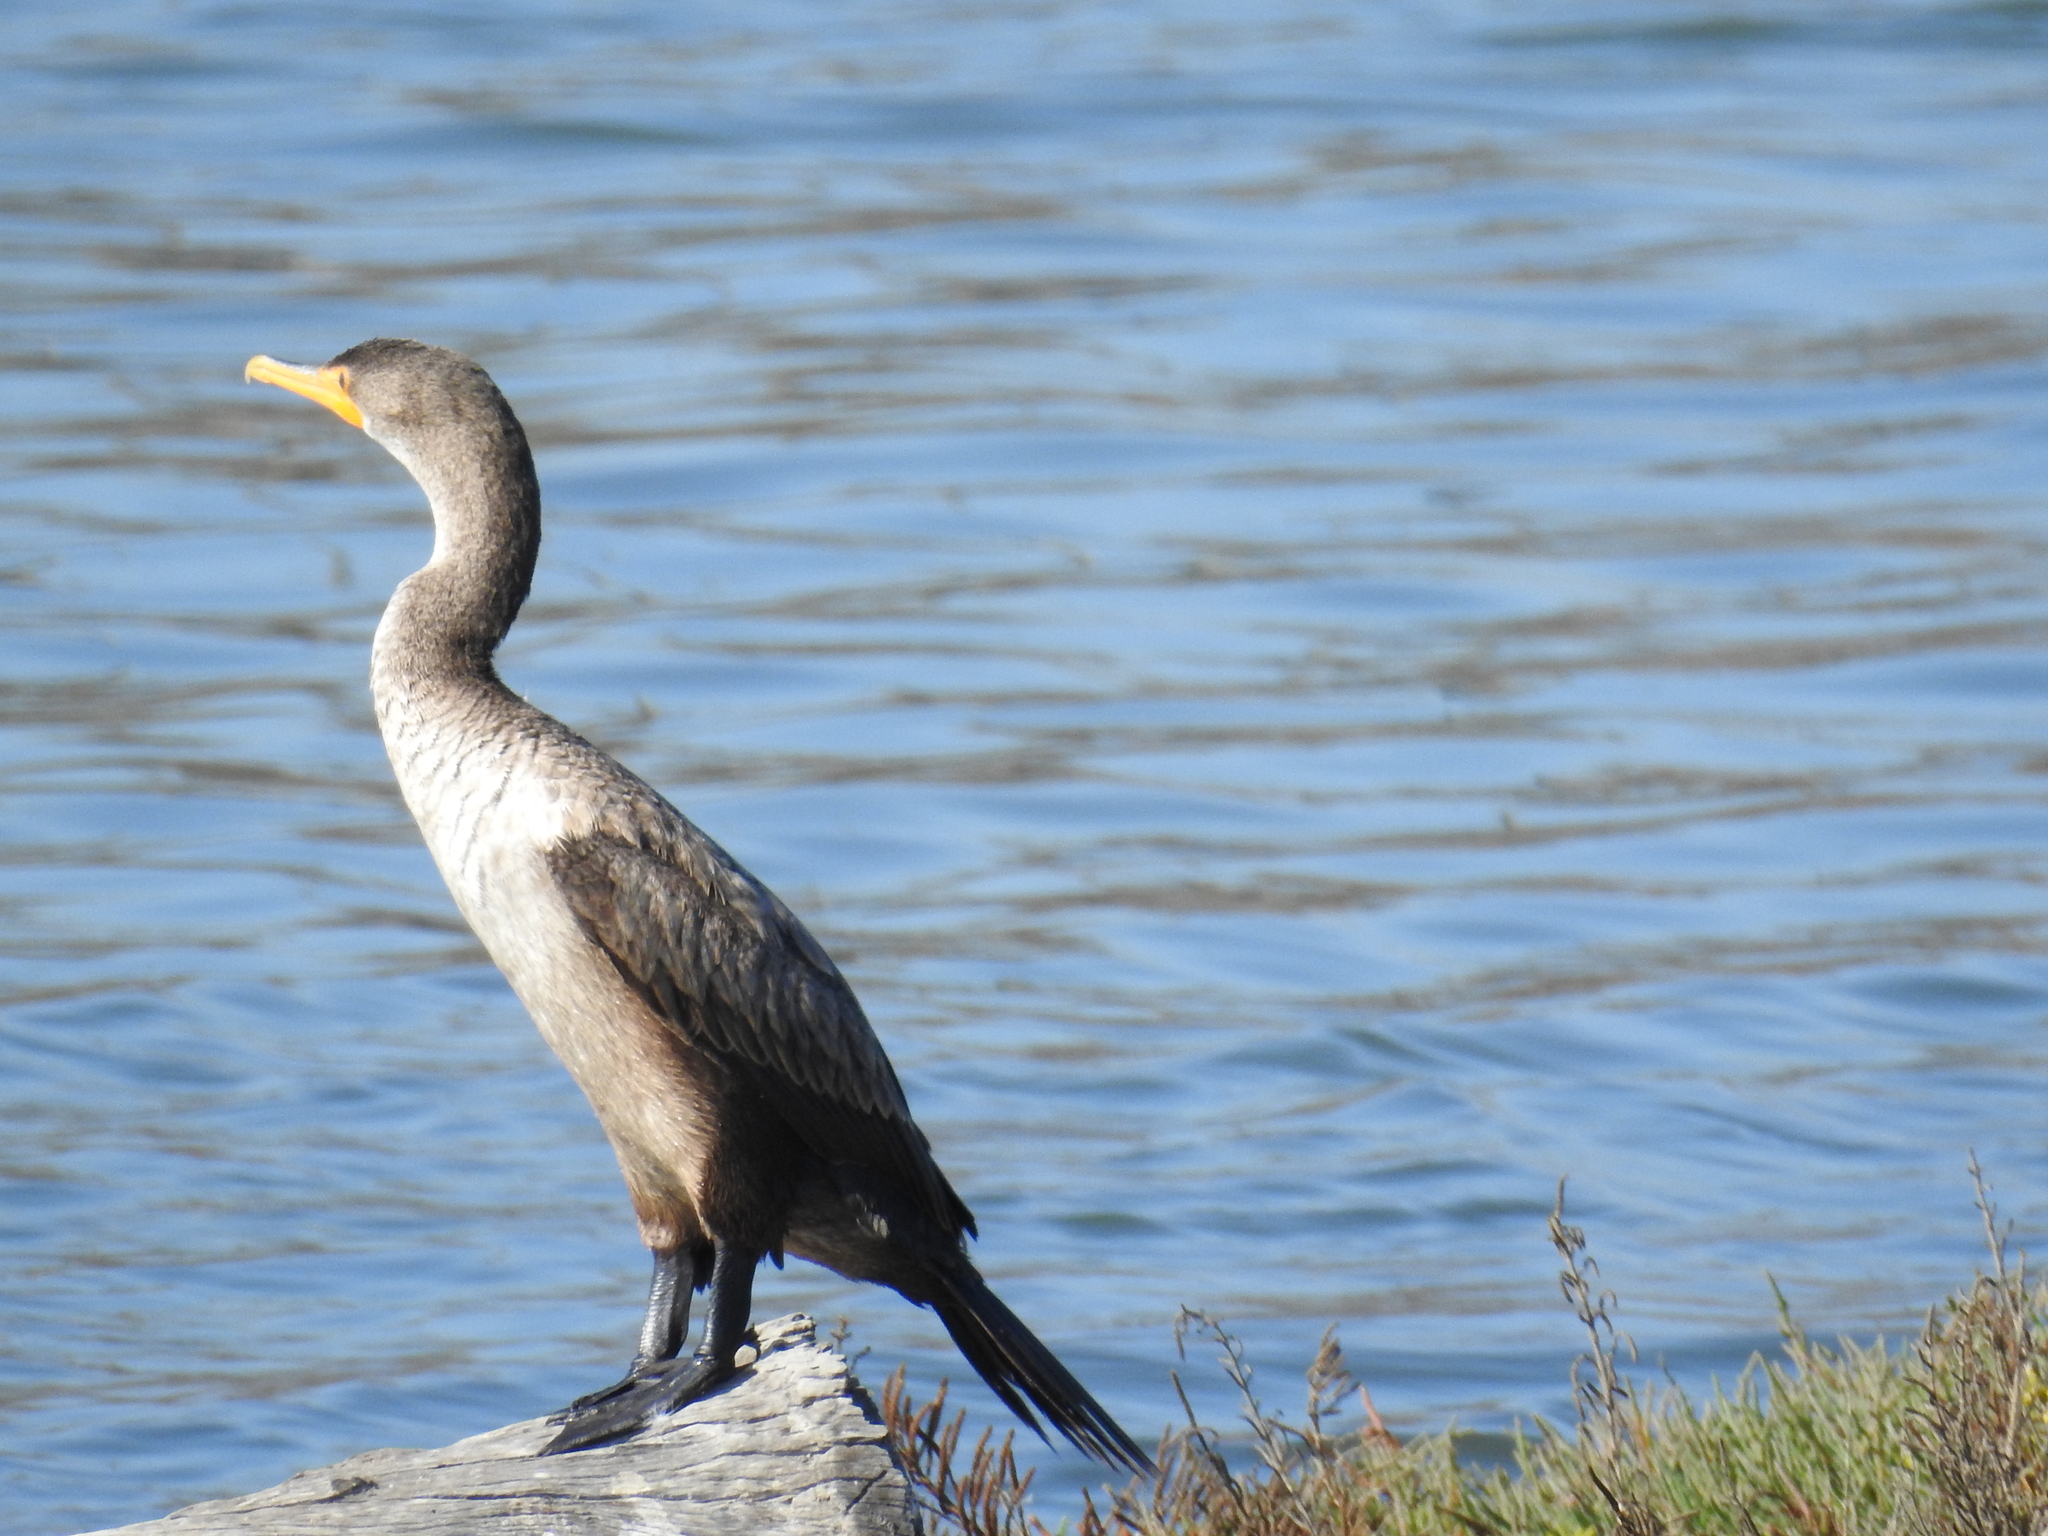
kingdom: Animalia
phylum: Chordata
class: Aves
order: Suliformes
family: Phalacrocoracidae
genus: Phalacrocorax
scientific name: Phalacrocorax auritus
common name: Double-crested cormorant
